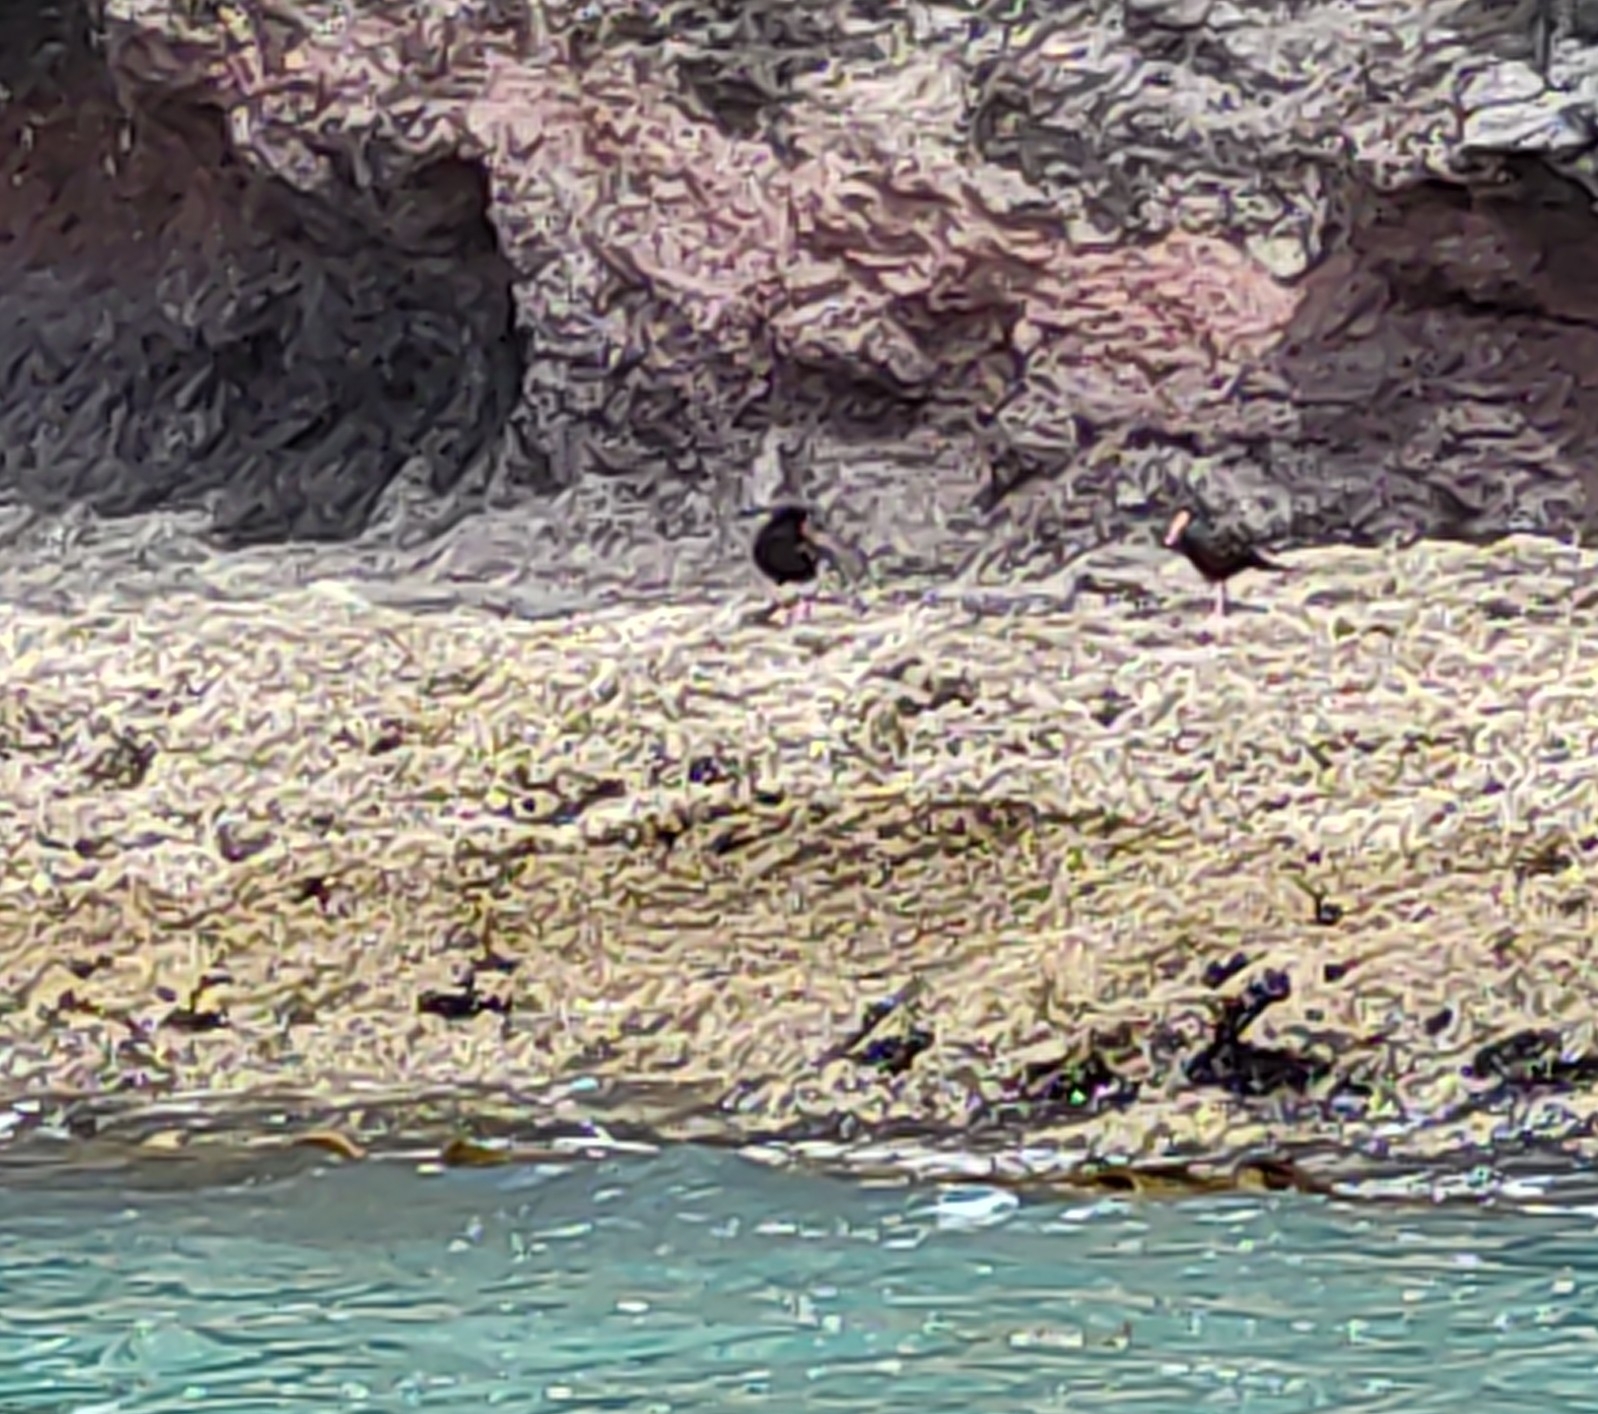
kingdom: Animalia
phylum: Chordata
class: Aves
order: Charadriiformes
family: Haematopodidae
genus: Haematopus
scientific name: Haematopus unicolor
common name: Variable oystercatcher
